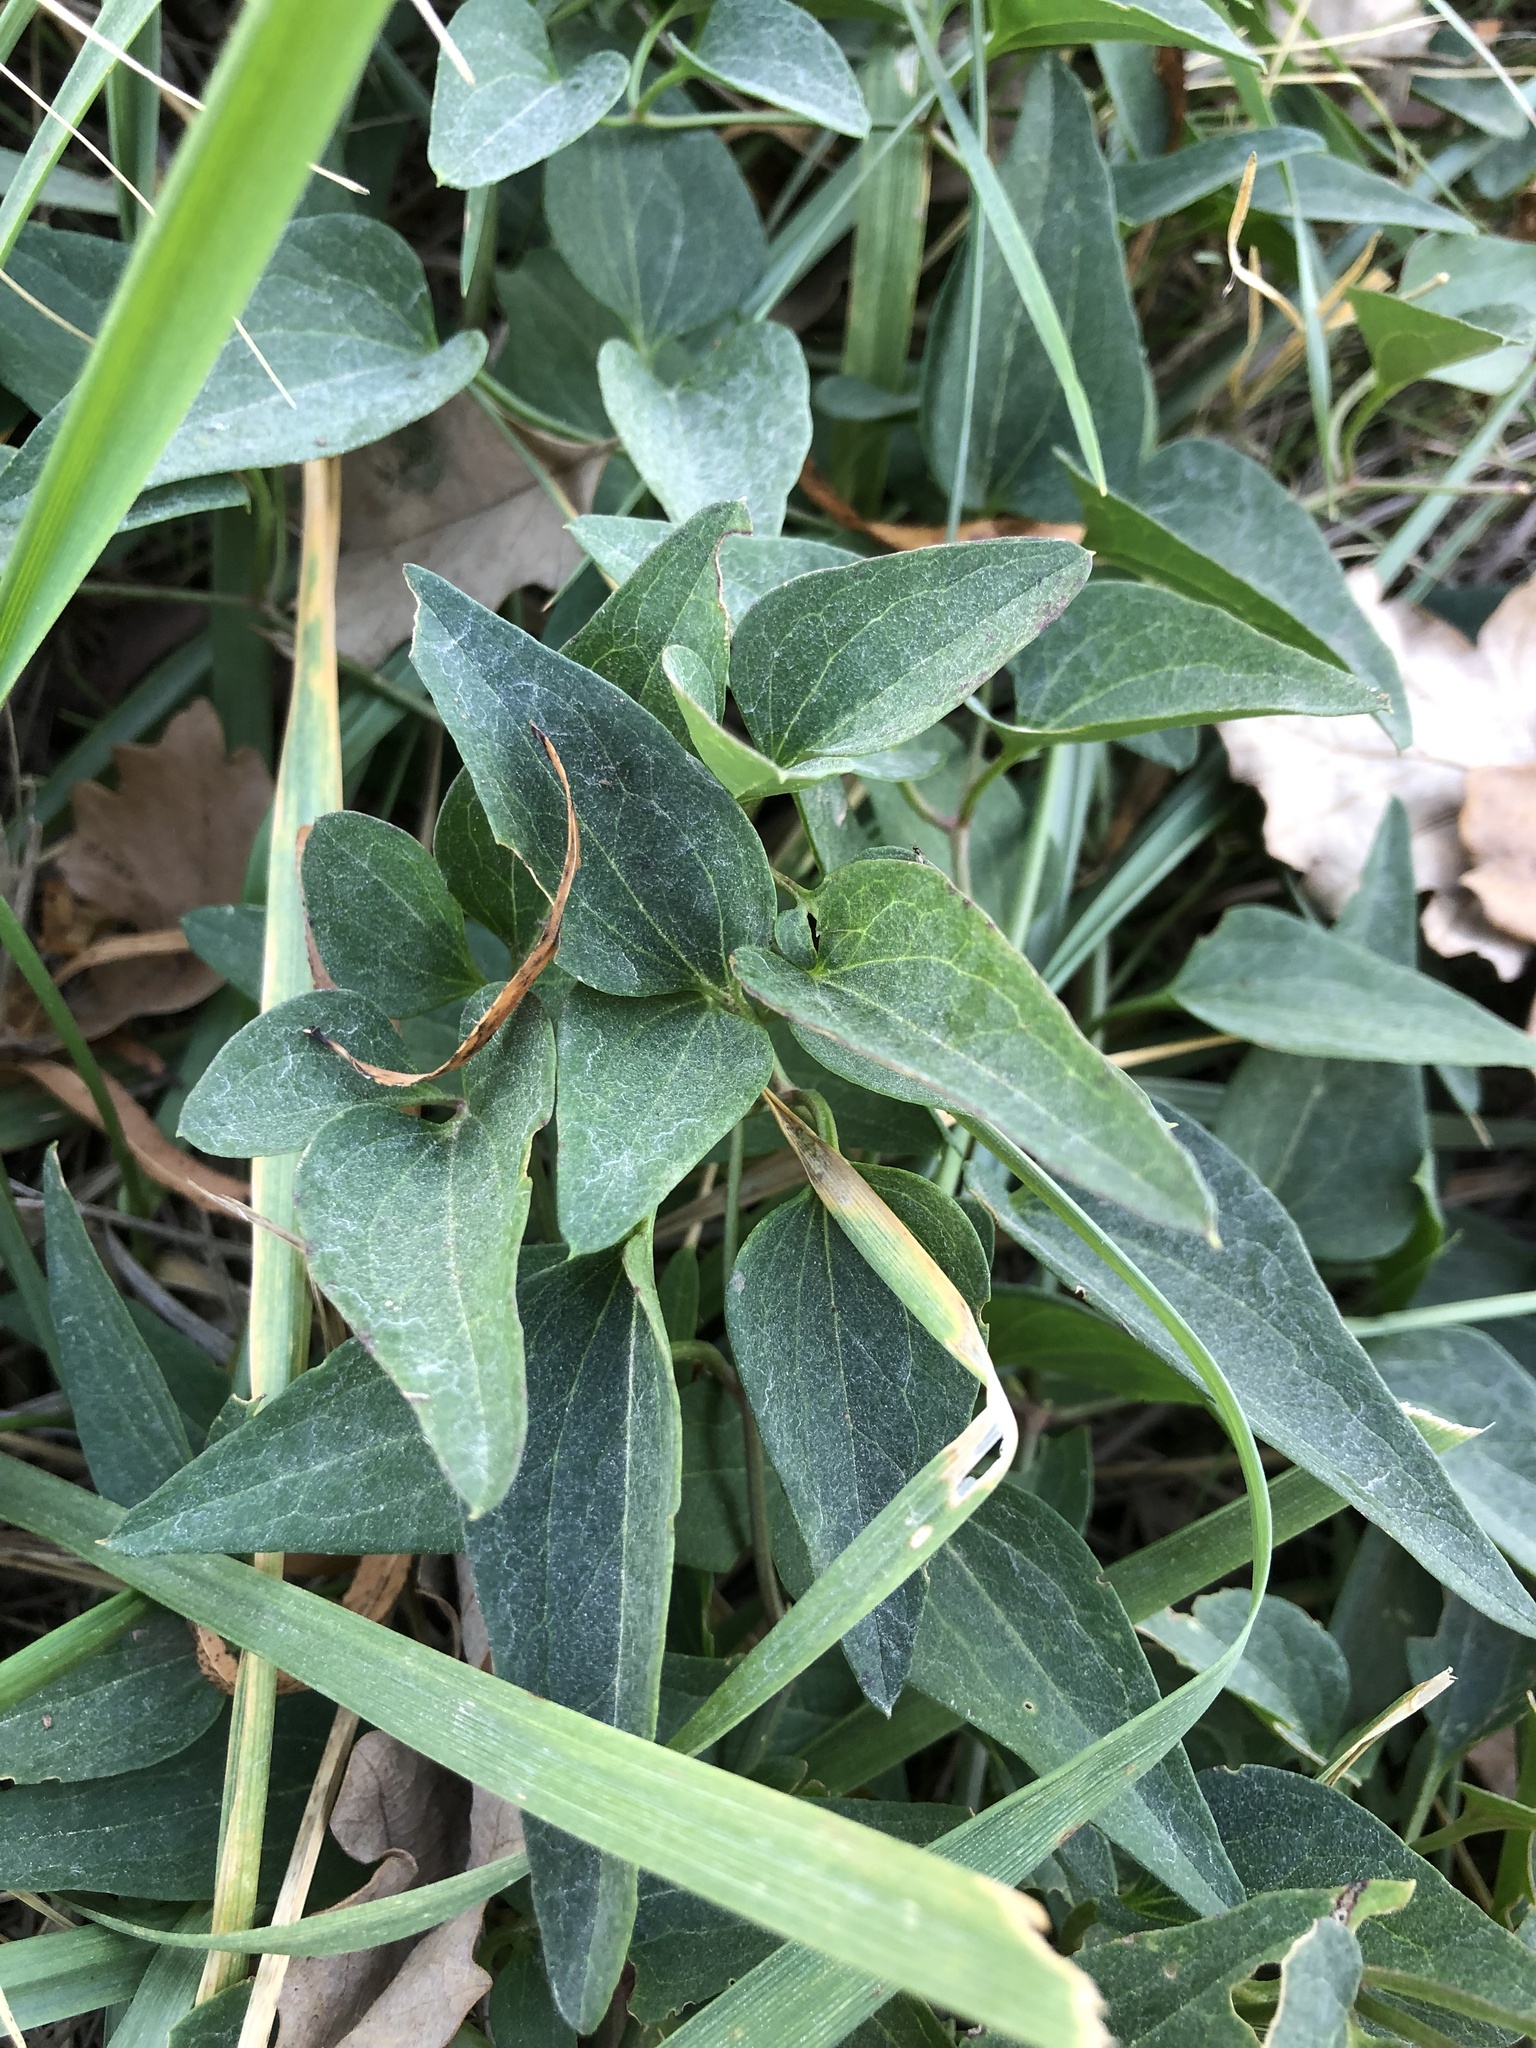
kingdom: Plantae
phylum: Tracheophyta
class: Magnoliopsida
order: Ranunculales
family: Ranunculaceae
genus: Clematis
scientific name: Clematis terniflora
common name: Sweet autumn clematis
